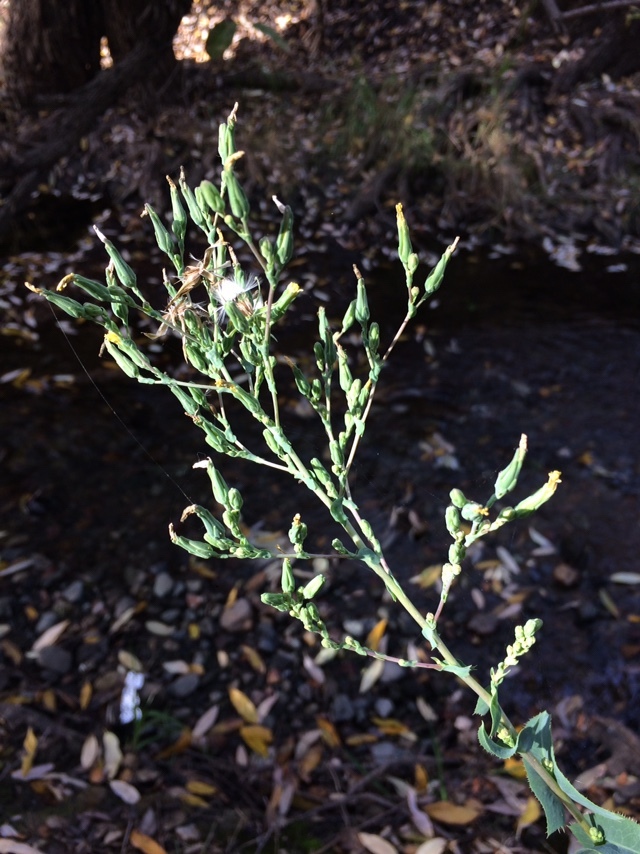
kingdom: Plantae
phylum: Tracheophyta
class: Magnoliopsida
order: Asterales
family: Asteraceae
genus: Lactuca
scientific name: Lactuca serriola
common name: Prickly lettuce
